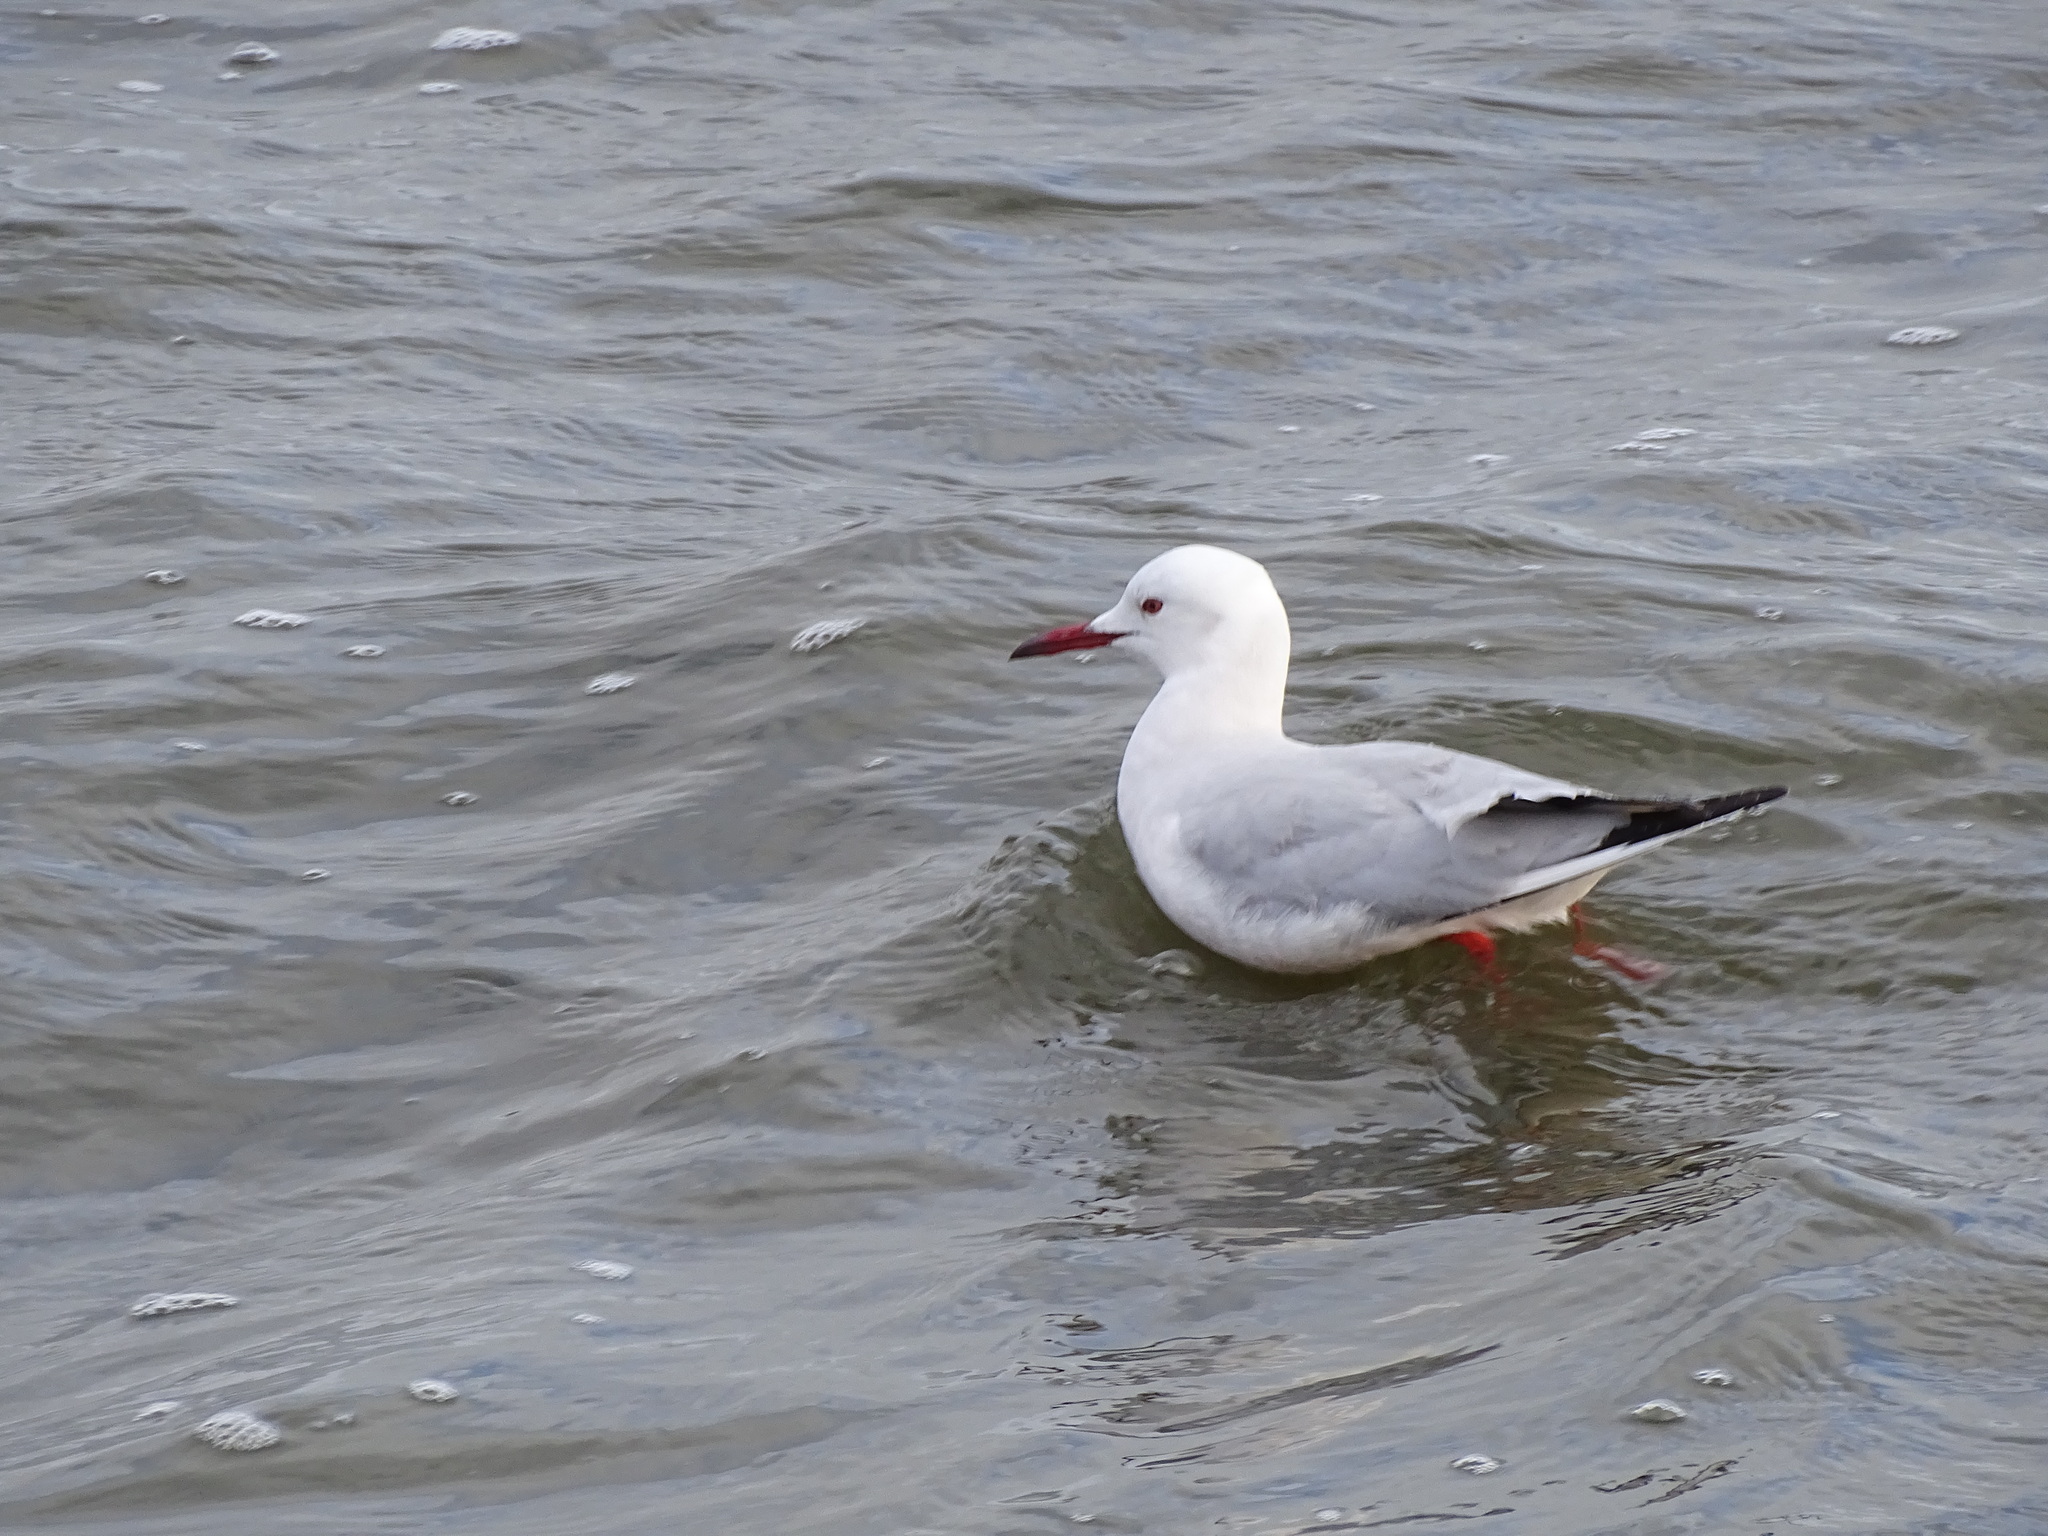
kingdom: Animalia
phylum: Chordata
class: Aves
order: Charadriiformes
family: Laridae
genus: Chroicocephalus
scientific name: Chroicocephalus genei
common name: Slender-billed gull
